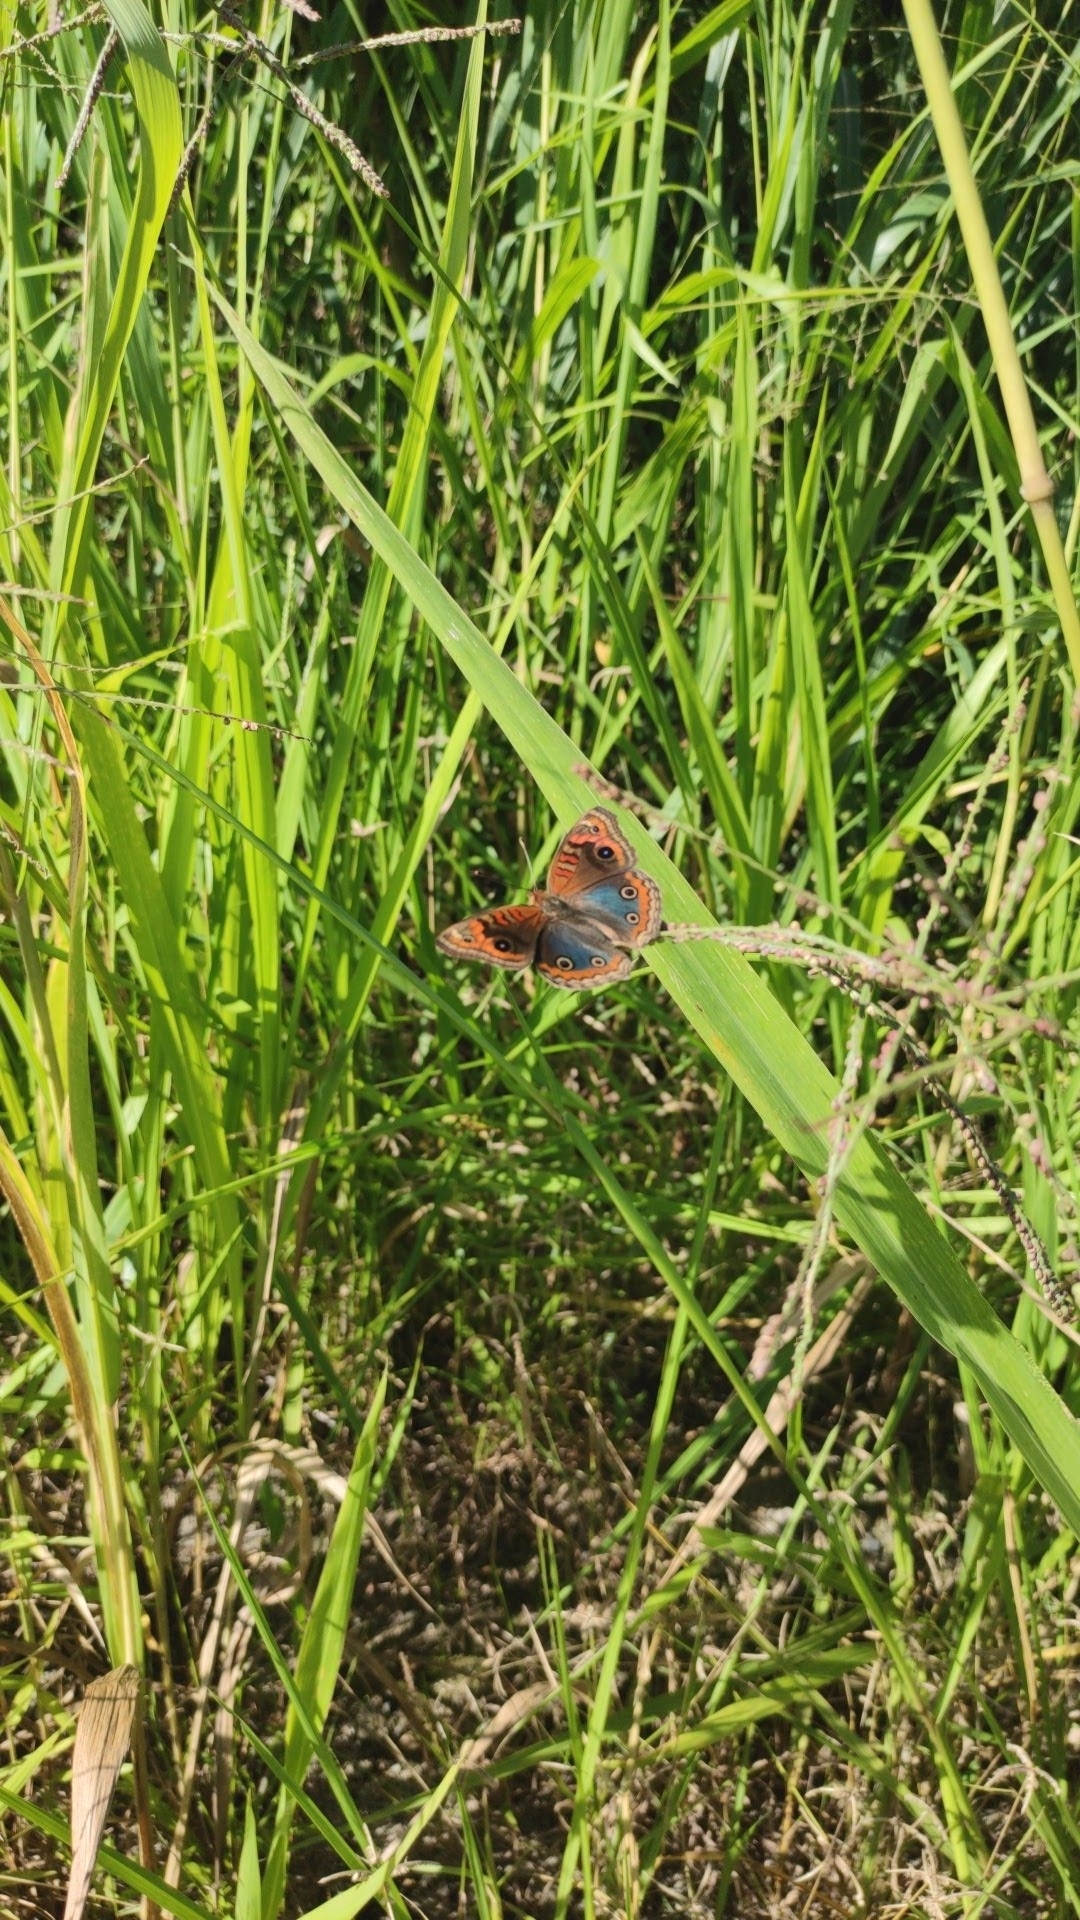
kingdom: Animalia
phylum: Arthropoda
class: Insecta
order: Lepidoptera
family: Nymphalidae
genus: Junonia
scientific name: Junonia evarete
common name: Black mangrove buckeye
